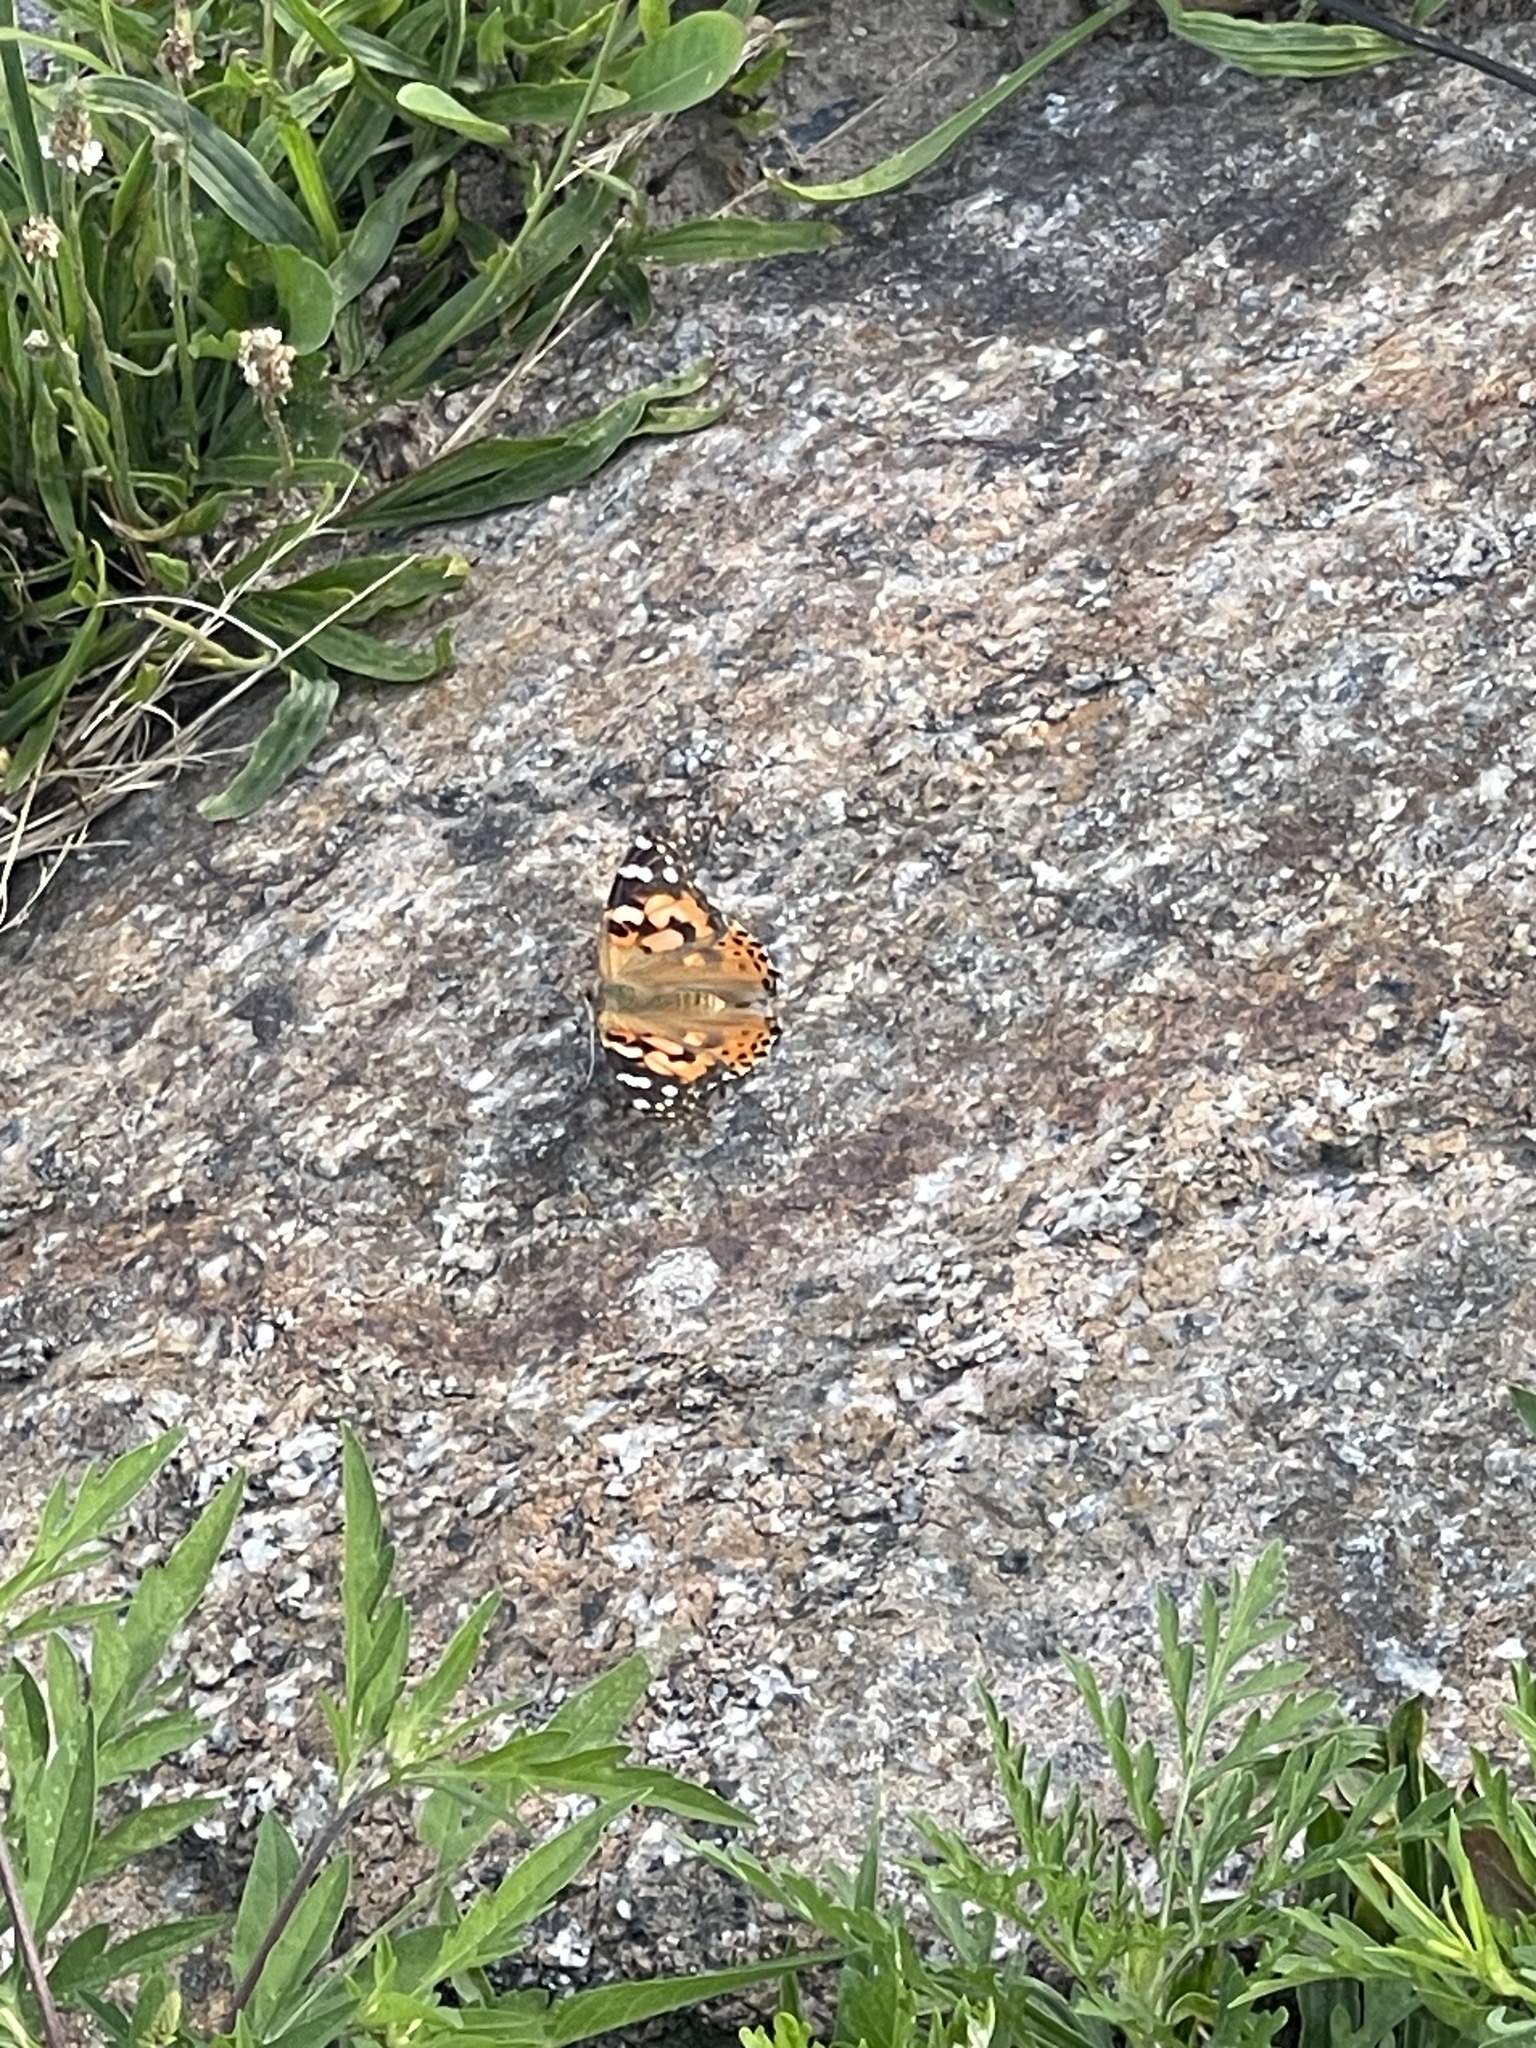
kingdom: Animalia
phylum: Arthropoda
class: Insecta
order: Lepidoptera
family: Nymphalidae
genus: Vanessa
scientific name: Vanessa cardui
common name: Painted lady
